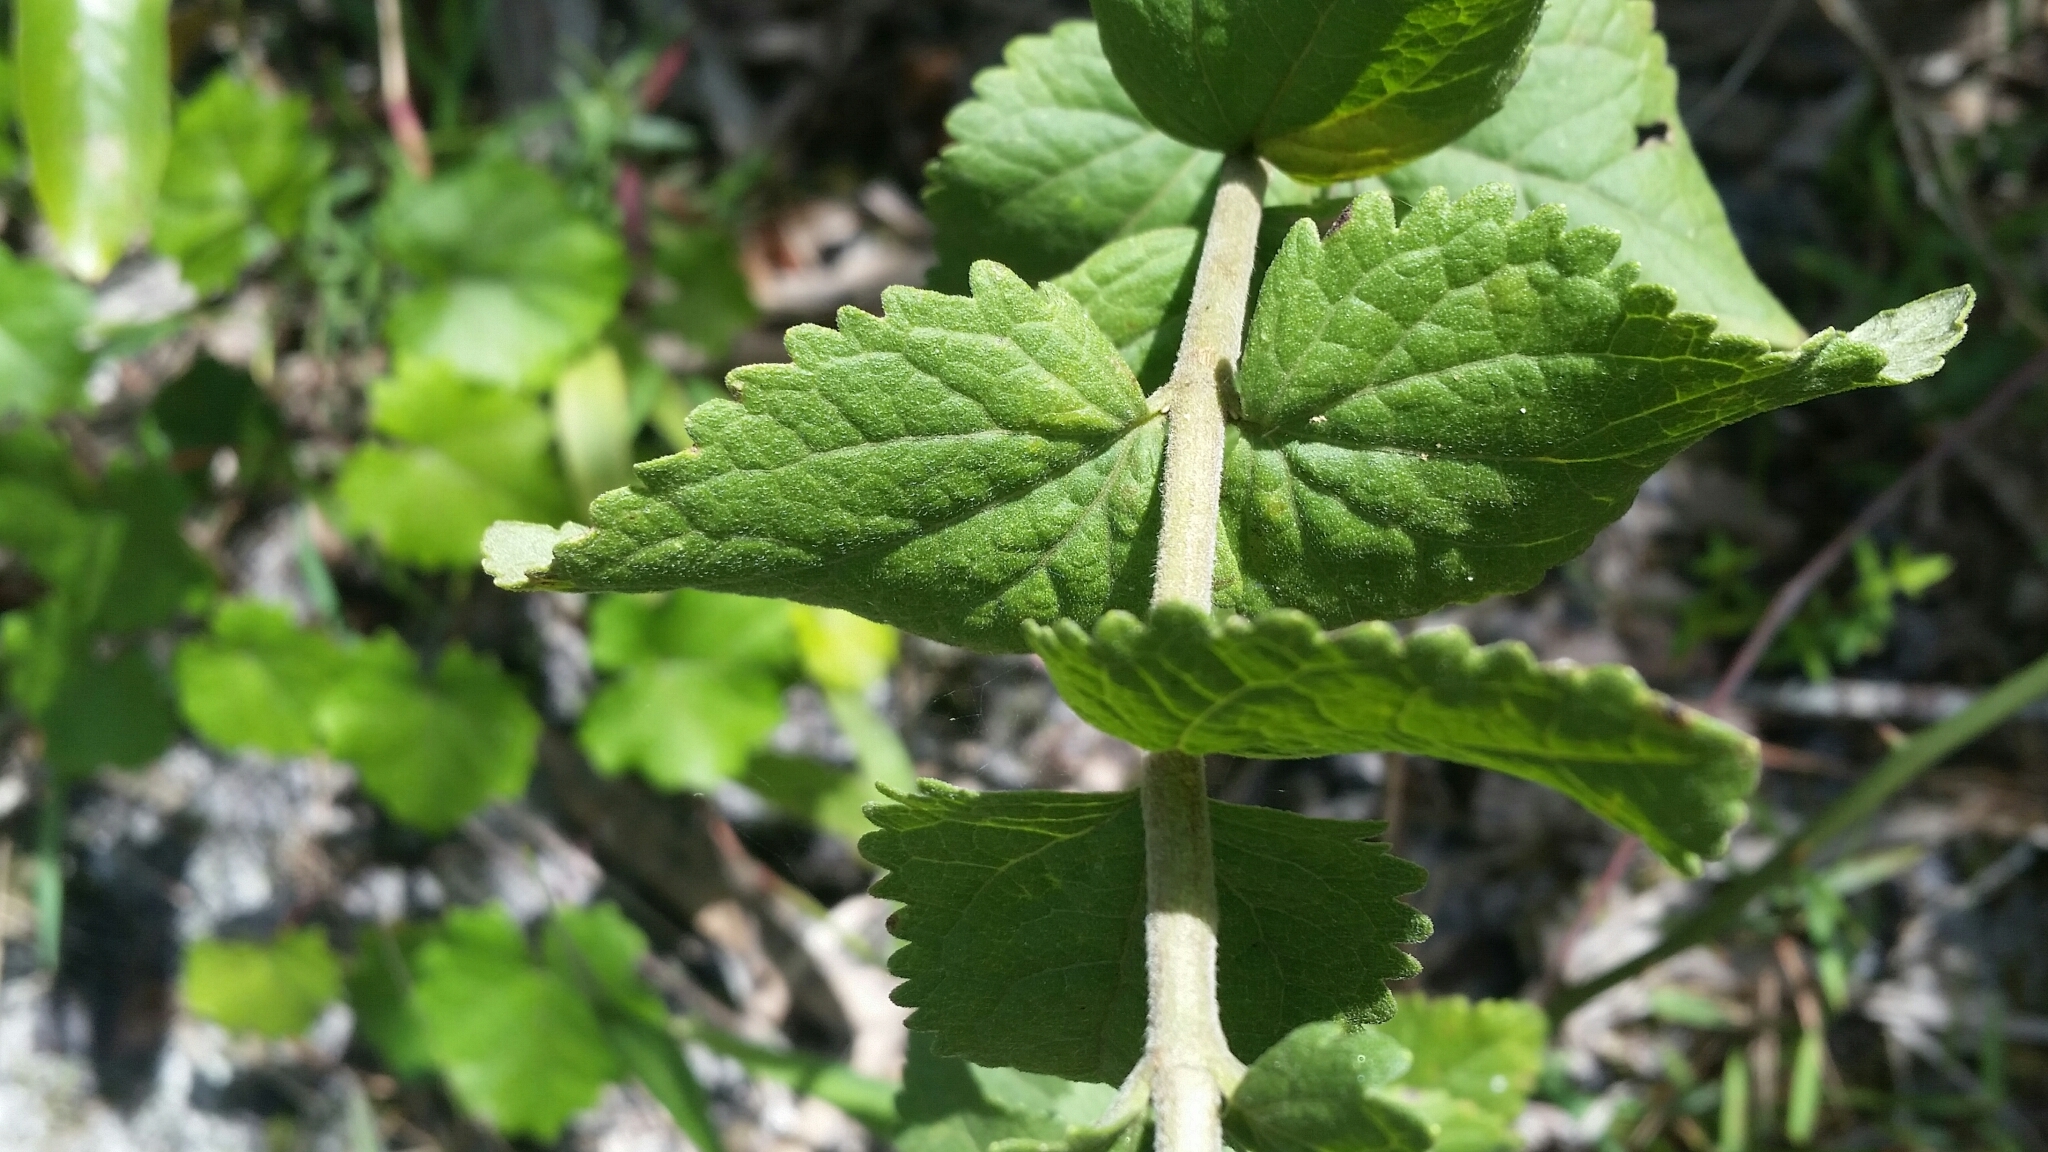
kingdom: Plantae
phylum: Tracheophyta
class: Magnoliopsida
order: Asterales
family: Asteraceae
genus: Eupatorium
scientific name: Eupatorium rotundifolium
